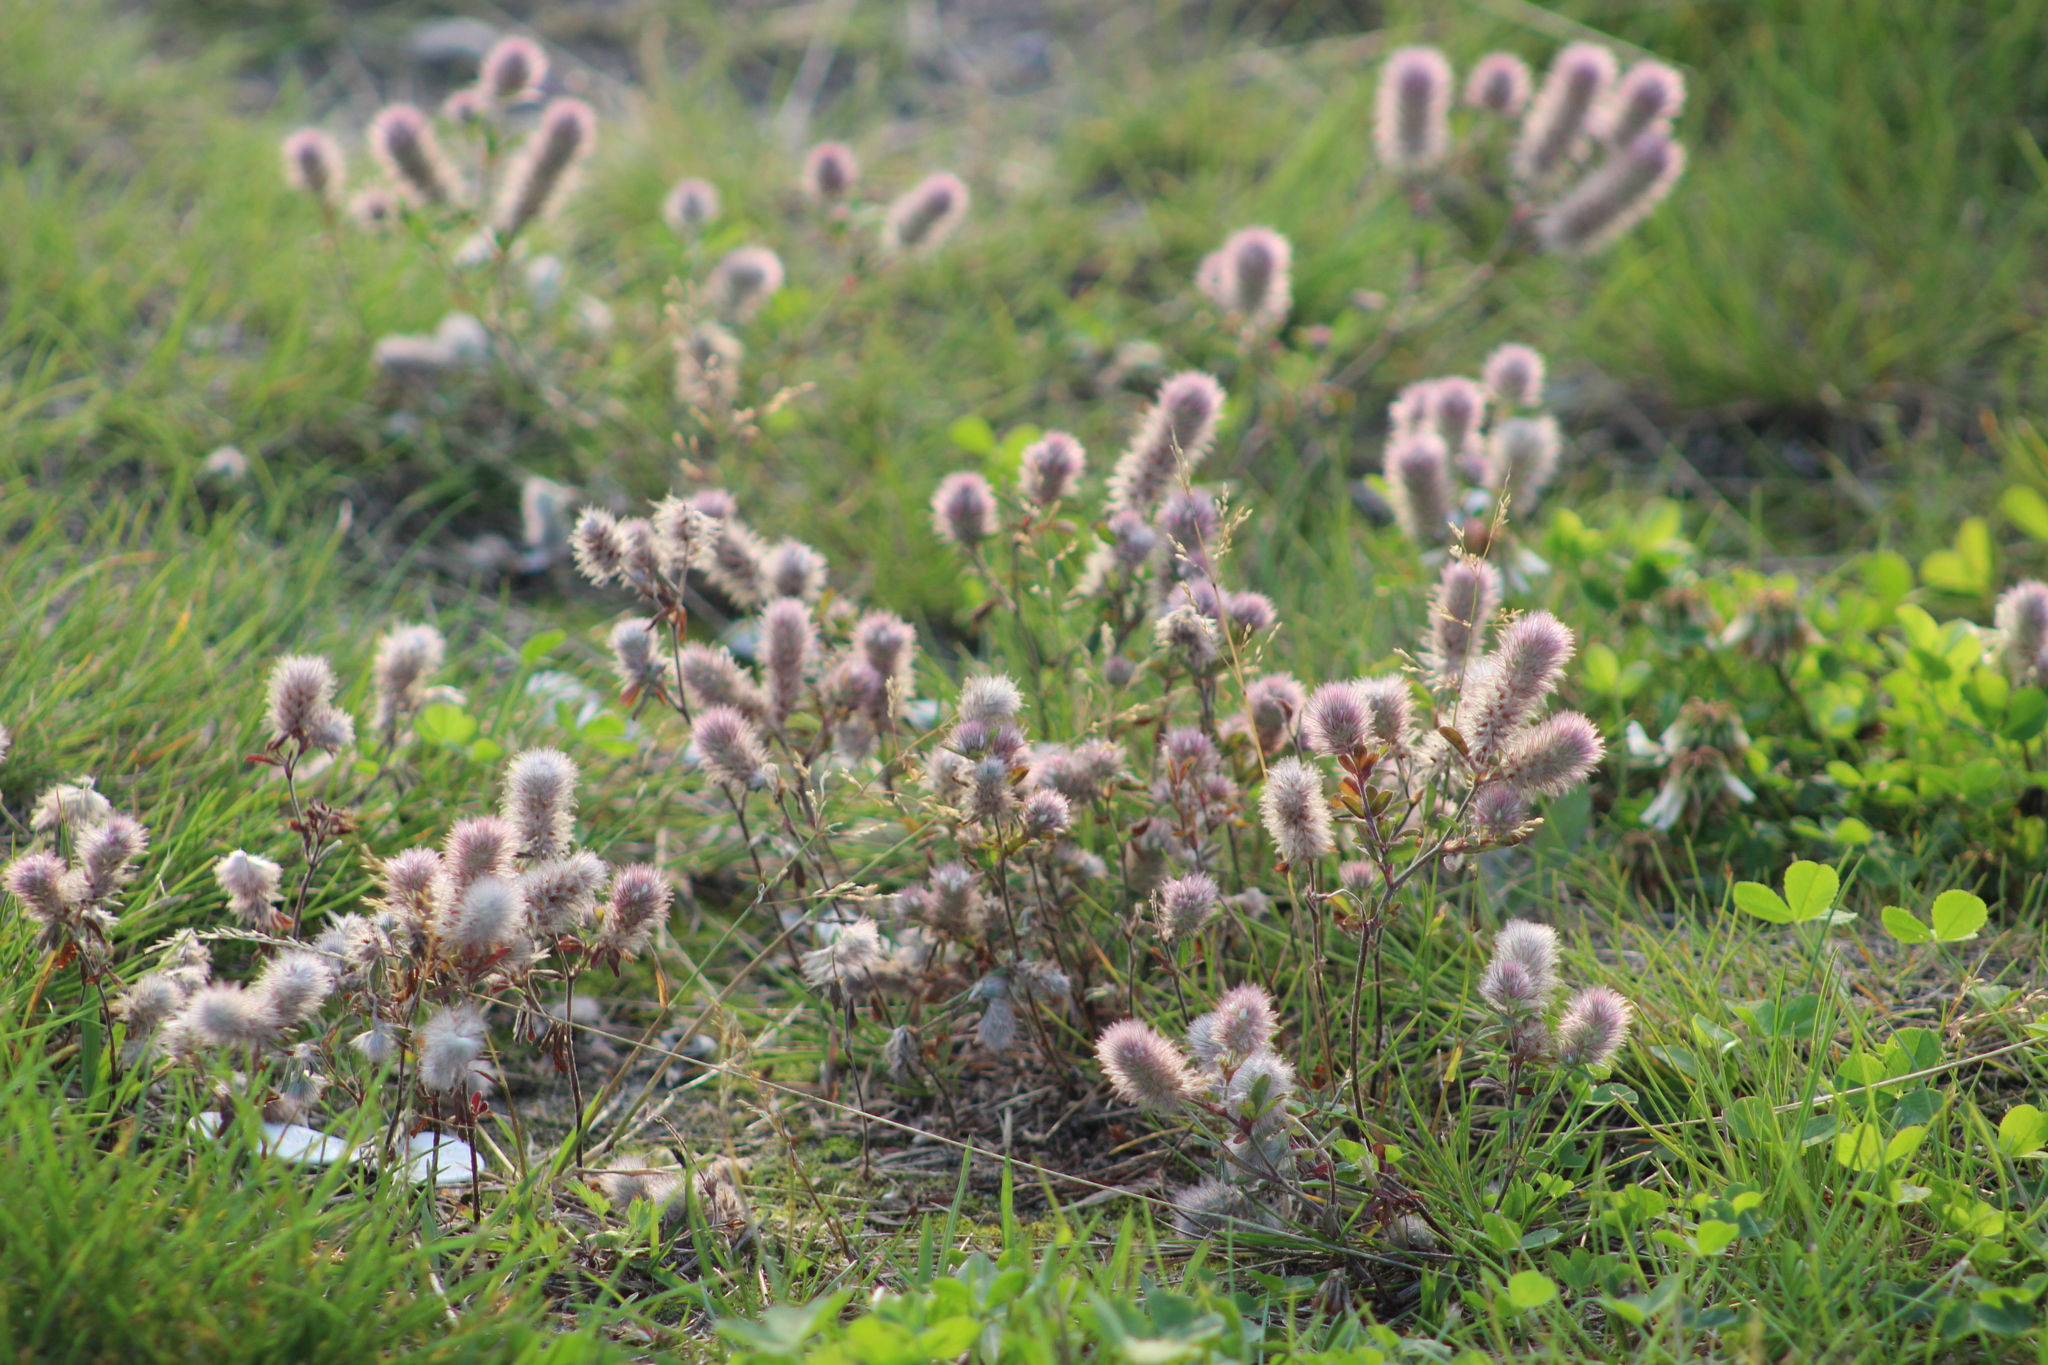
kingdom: Plantae
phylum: Tracheophyta
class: Magnoliopsida
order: Fabales
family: Fabaceae
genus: Trifolium
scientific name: Trifolium arvense
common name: Hare's-foot clover
